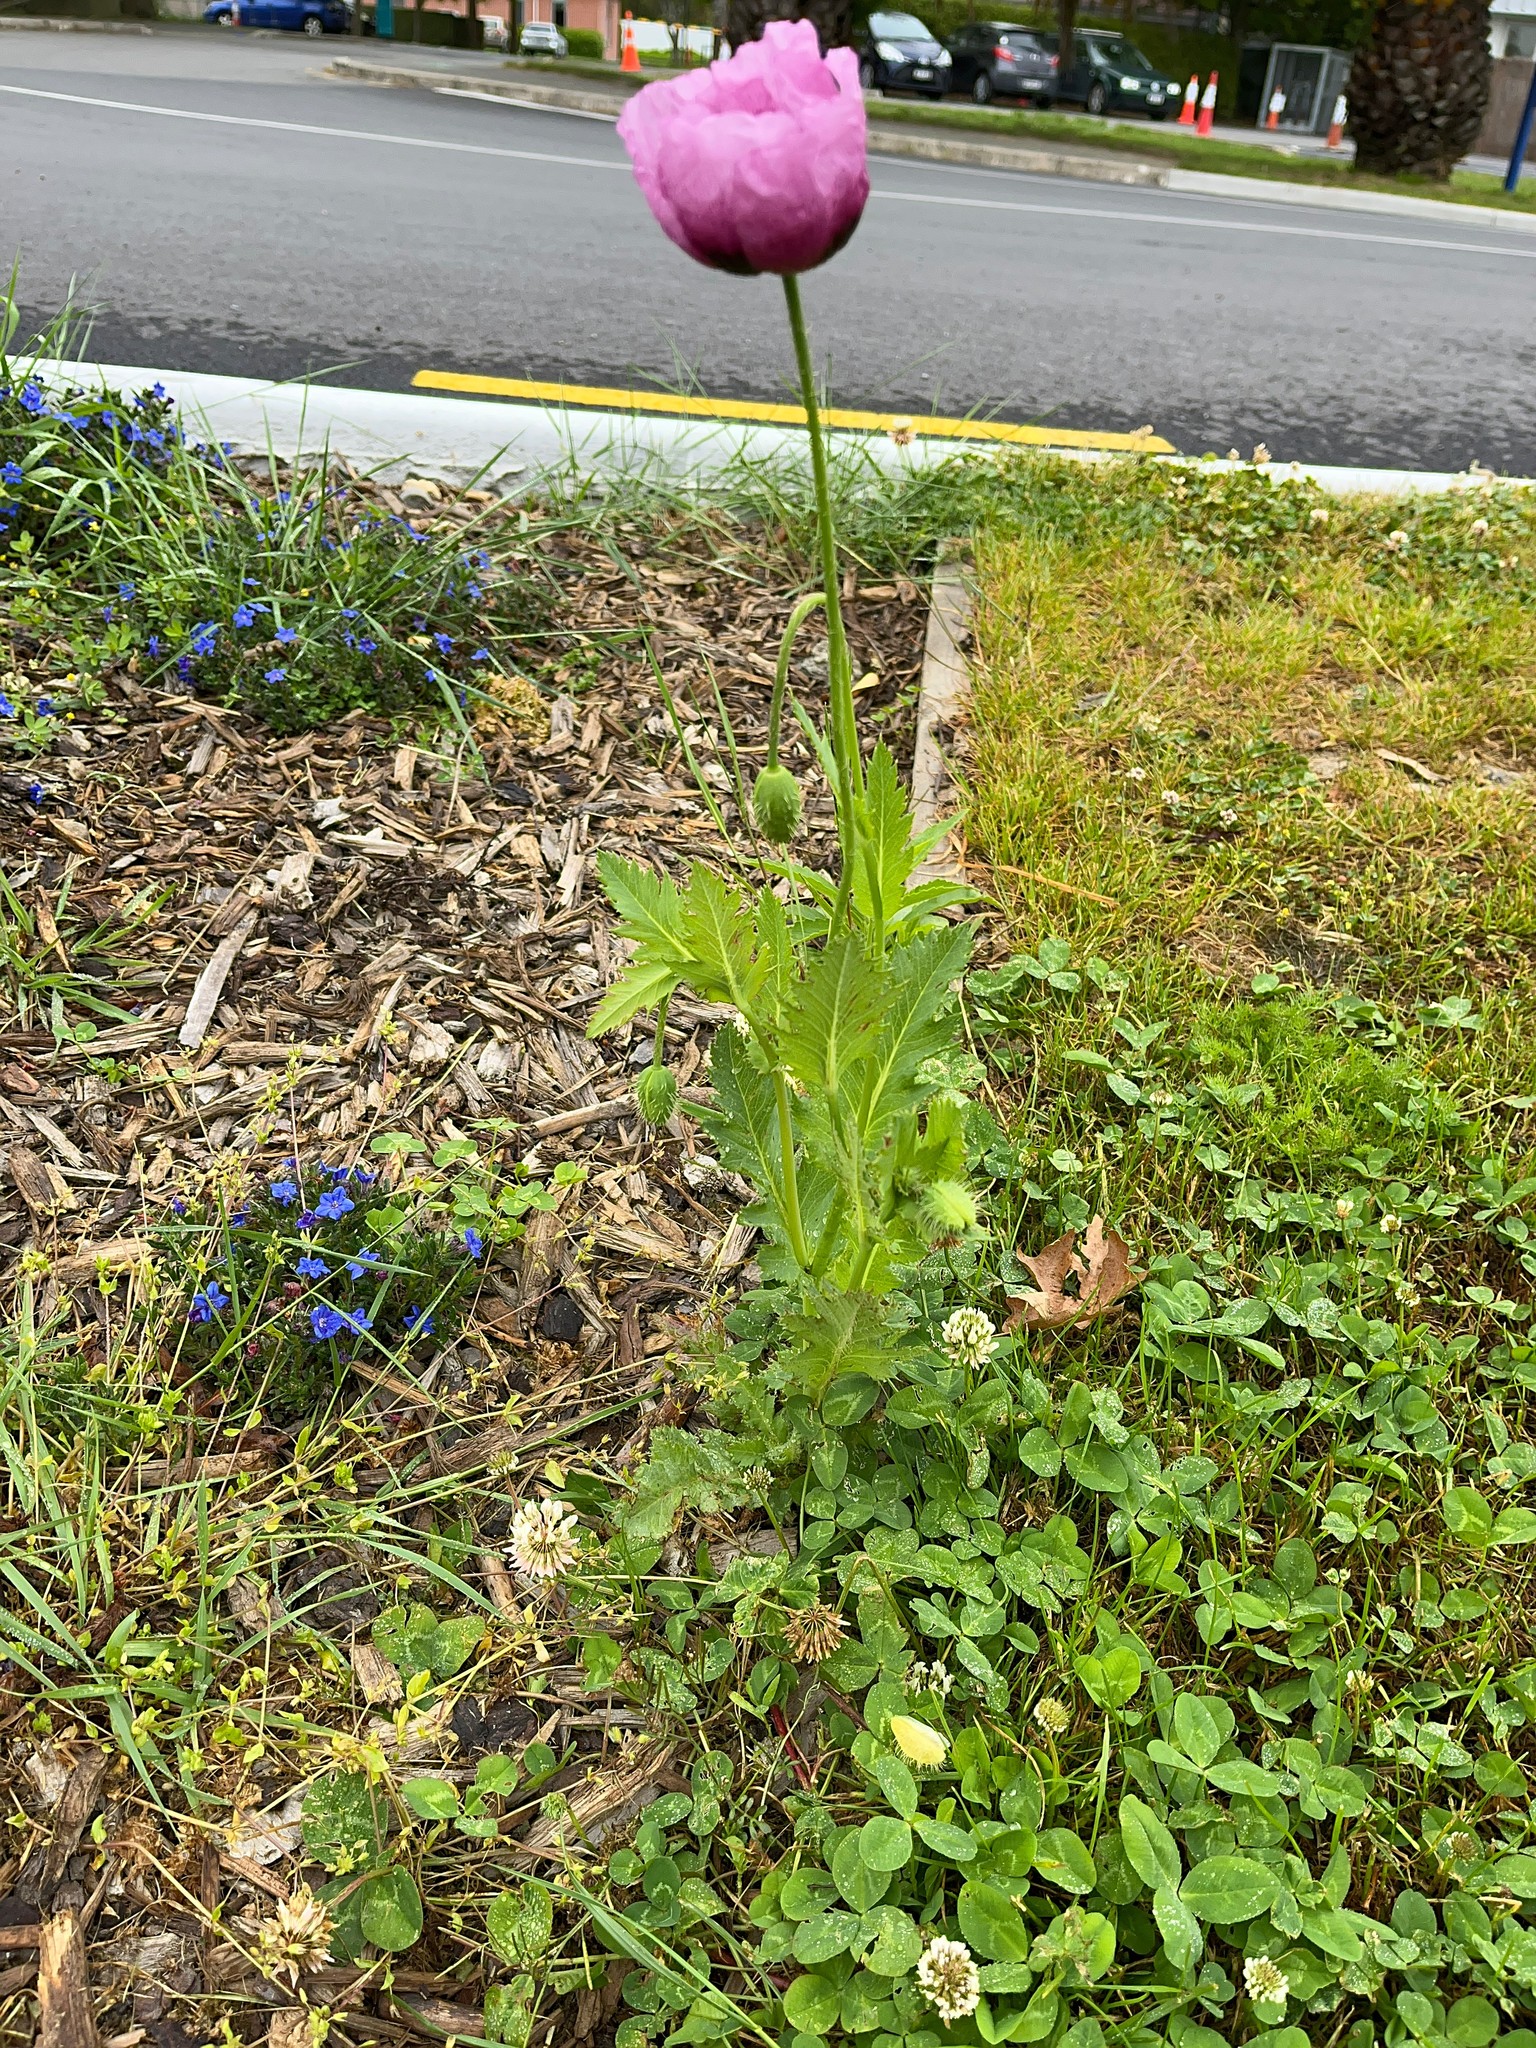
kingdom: Plantae
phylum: Tracheophyta
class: Magnoliopsida
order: Ranunculales
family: Papaveraceae
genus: Papaver
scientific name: Papaver somniferum
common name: Opium poppy
